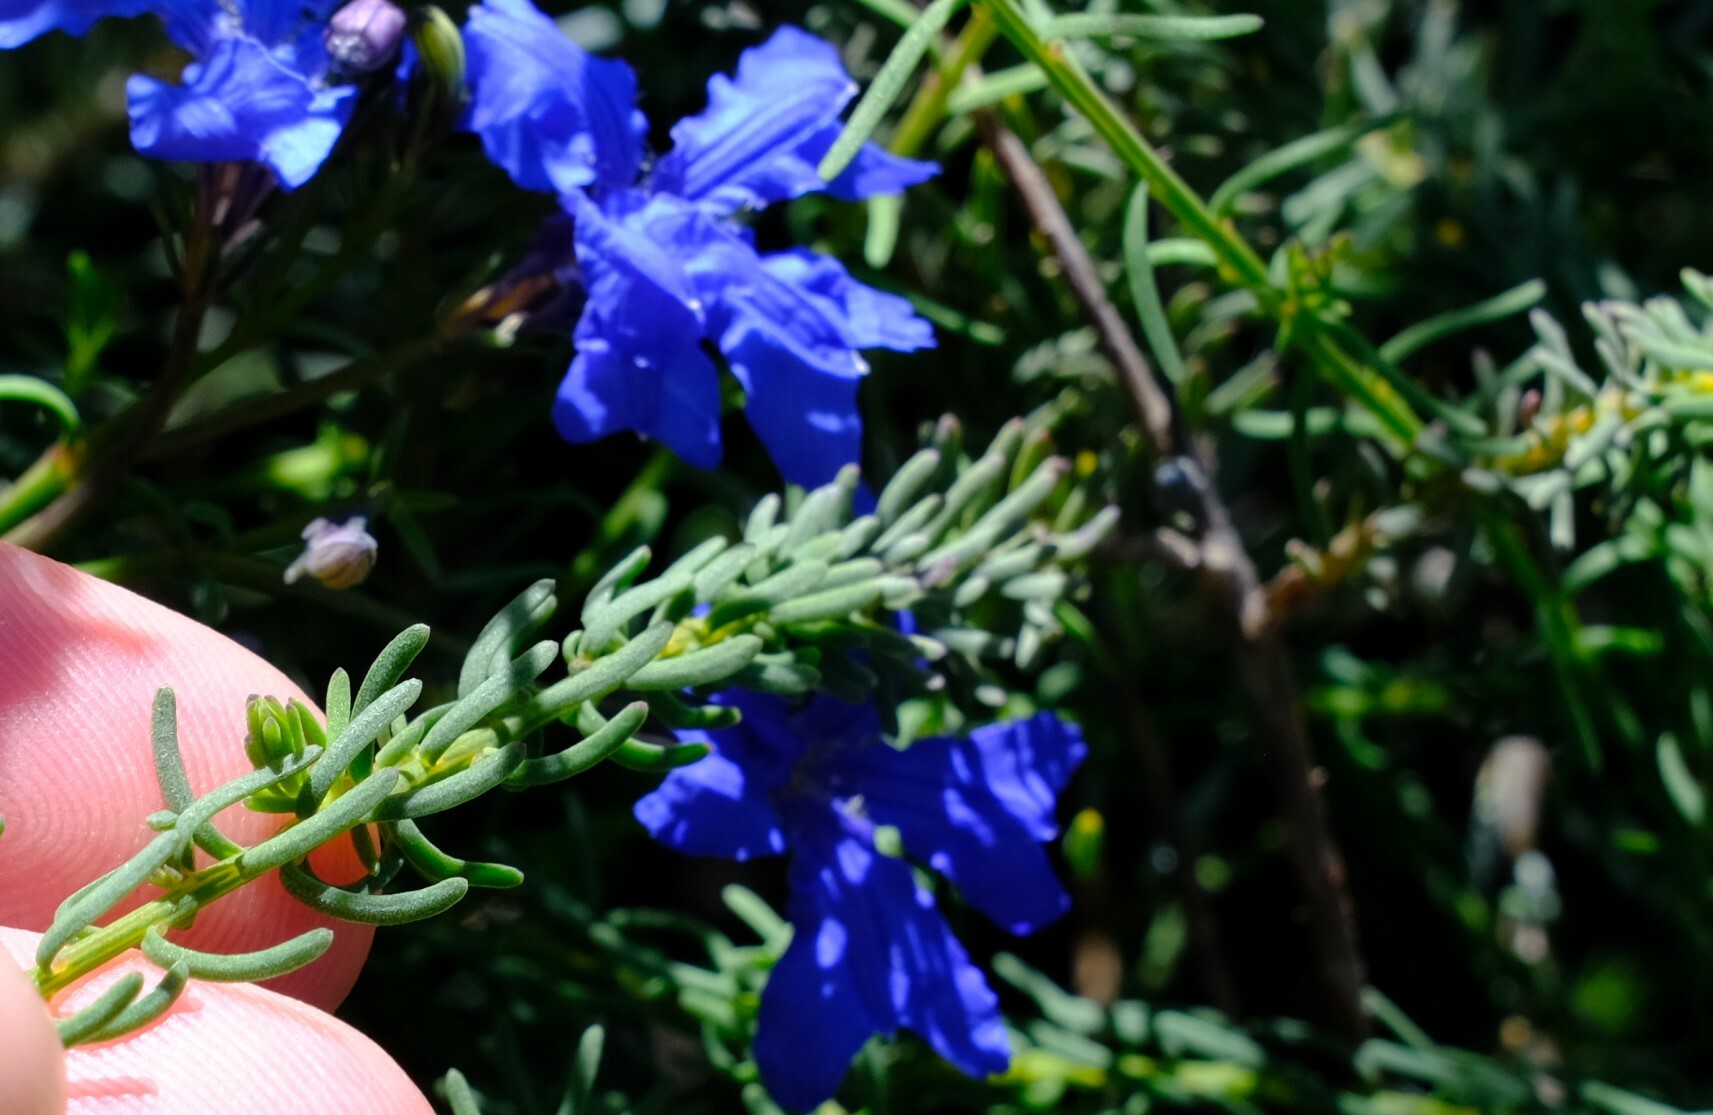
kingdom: Plantae
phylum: Tracheophyta
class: Magnoliopsida
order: Asterales
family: Goodeniaceae
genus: Lechenaultia
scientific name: Lechenaultia biloba
